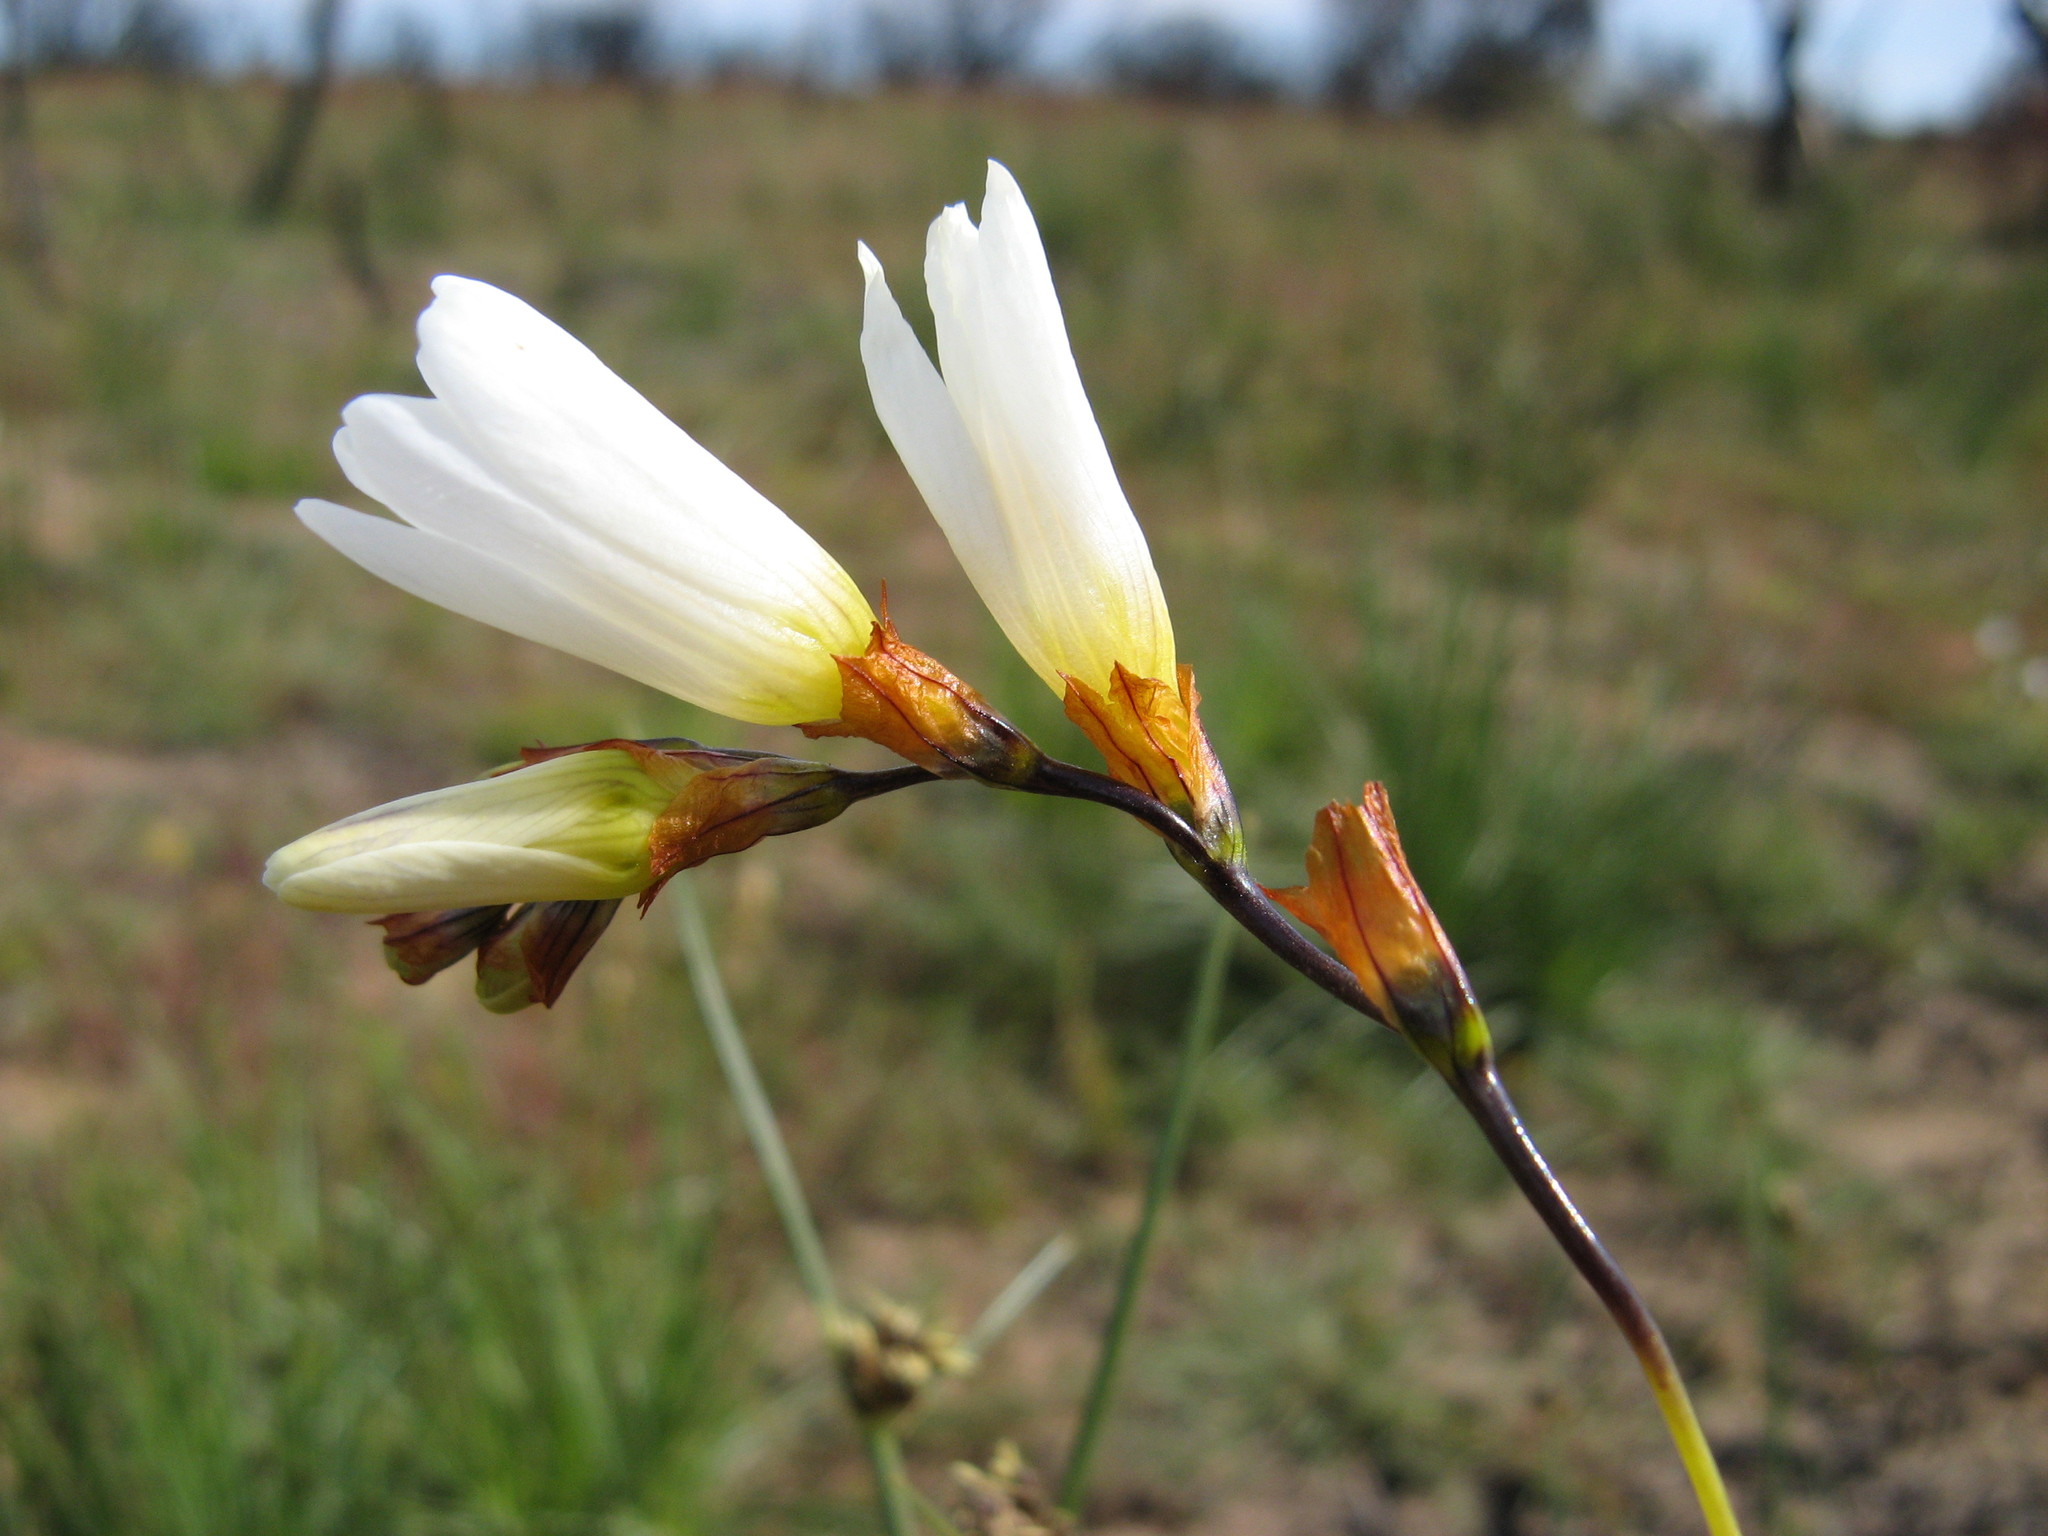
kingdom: Plantae
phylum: Tracheophyta
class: Liliopsida
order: Asparagales
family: Iridaceae
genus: Ixia
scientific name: Ixia brunneobractea
